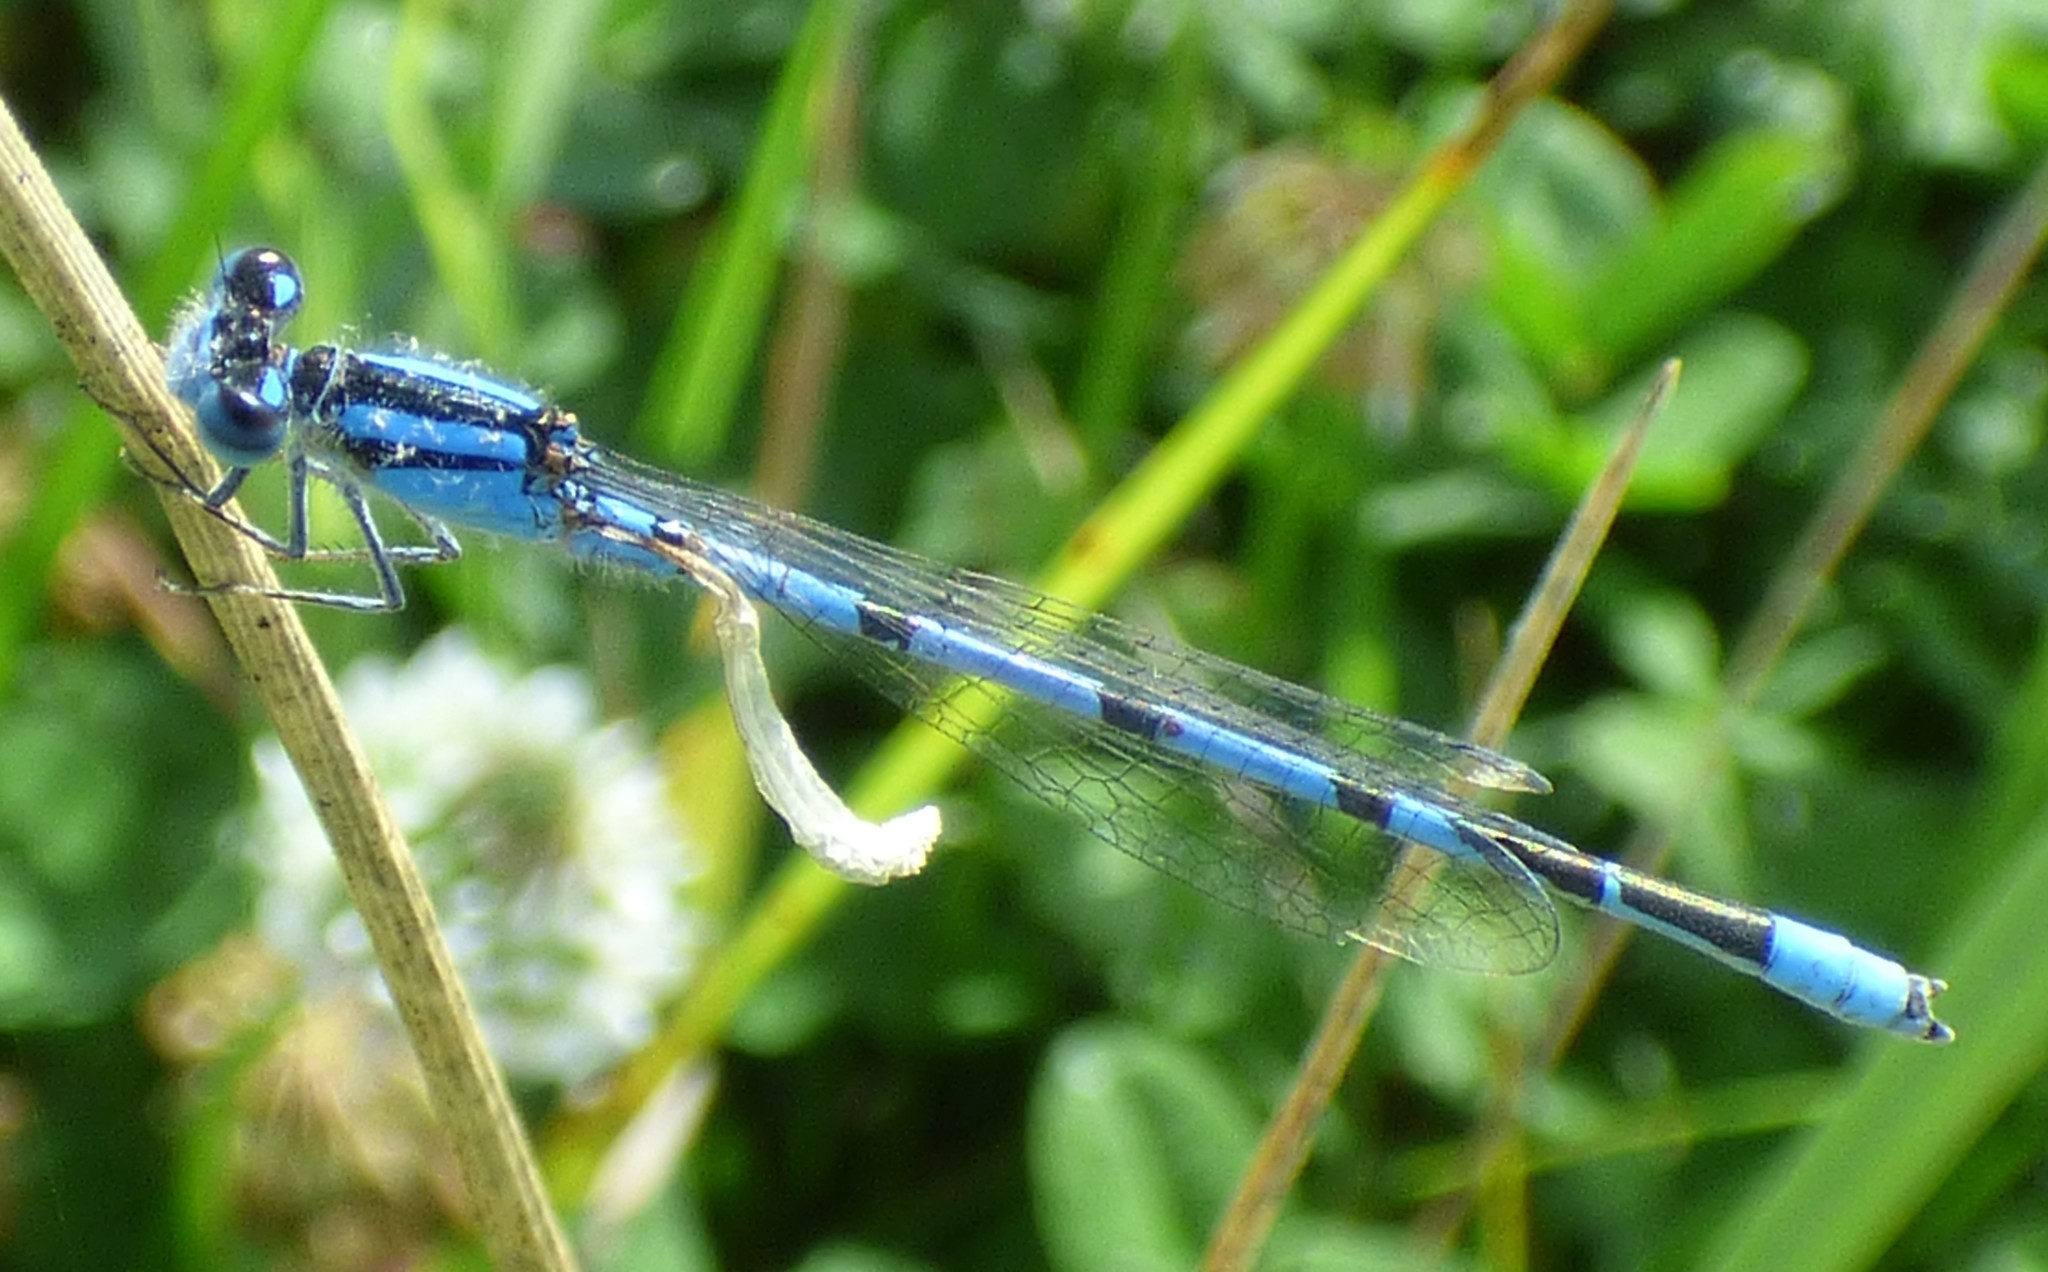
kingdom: Animalia
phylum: Arthropoda
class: Insecta
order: Odonata
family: Coenagrionidae
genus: Enallagma
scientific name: Enallagma civile
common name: Damselfly
